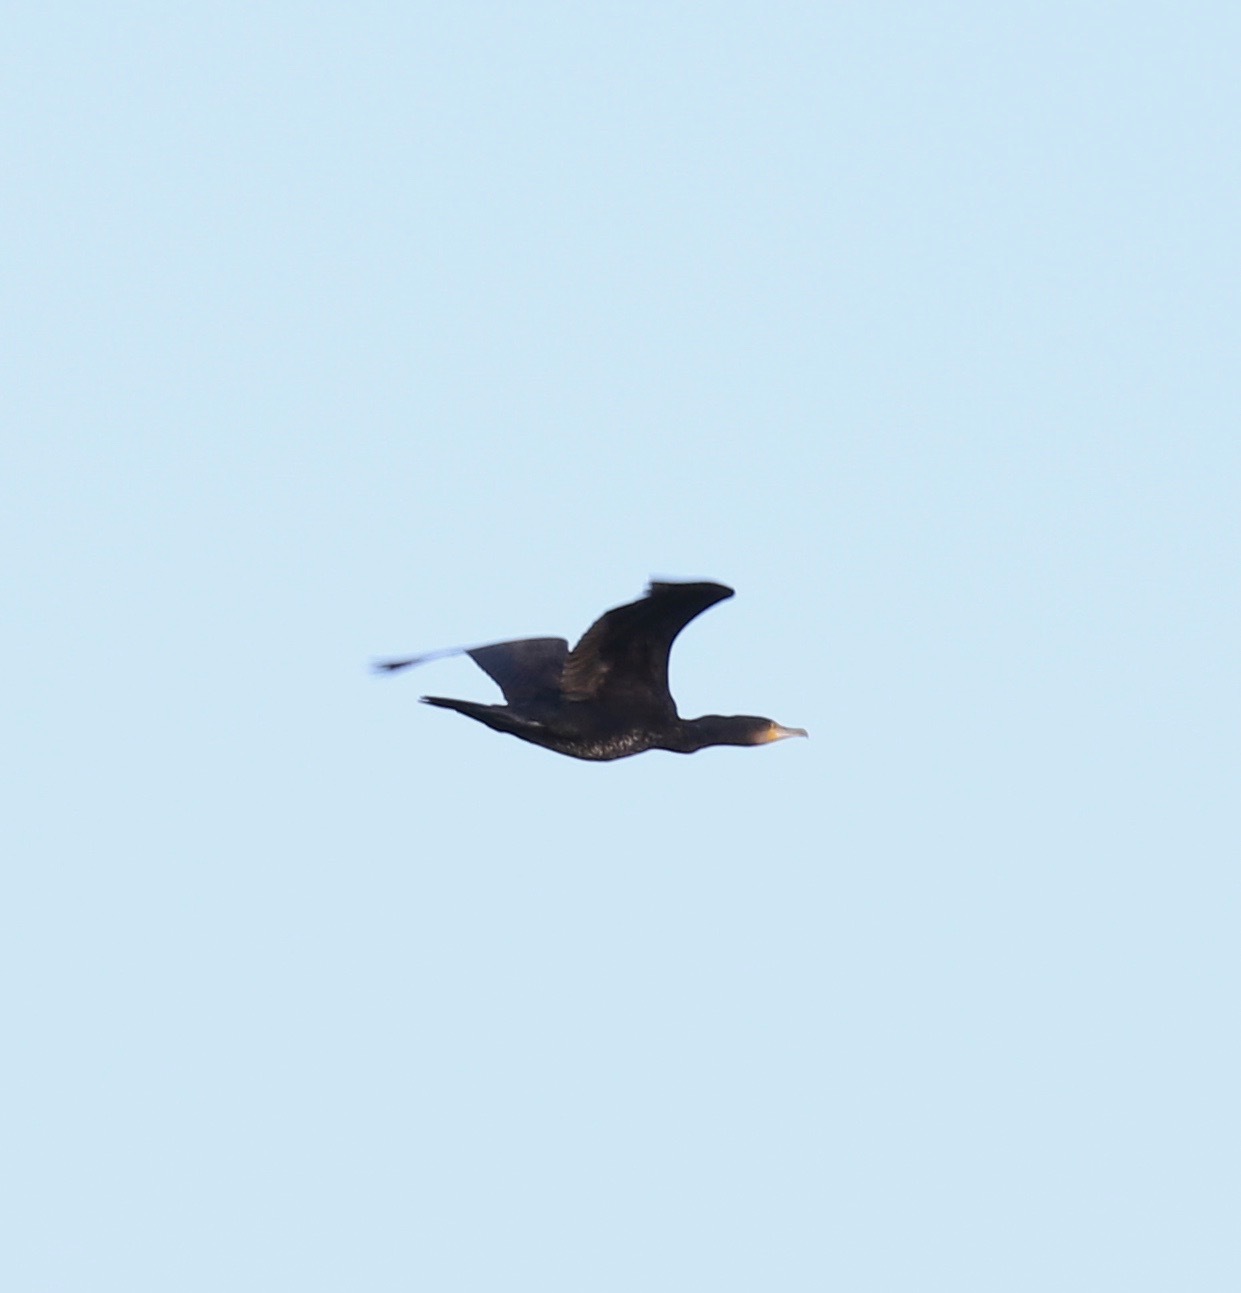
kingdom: Animalia
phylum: Chordata
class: Aves
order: Suliformes
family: Phalacrocoracidae
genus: Phalacrocorax
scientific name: Phalacrocorax carbo
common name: Great cormorant
